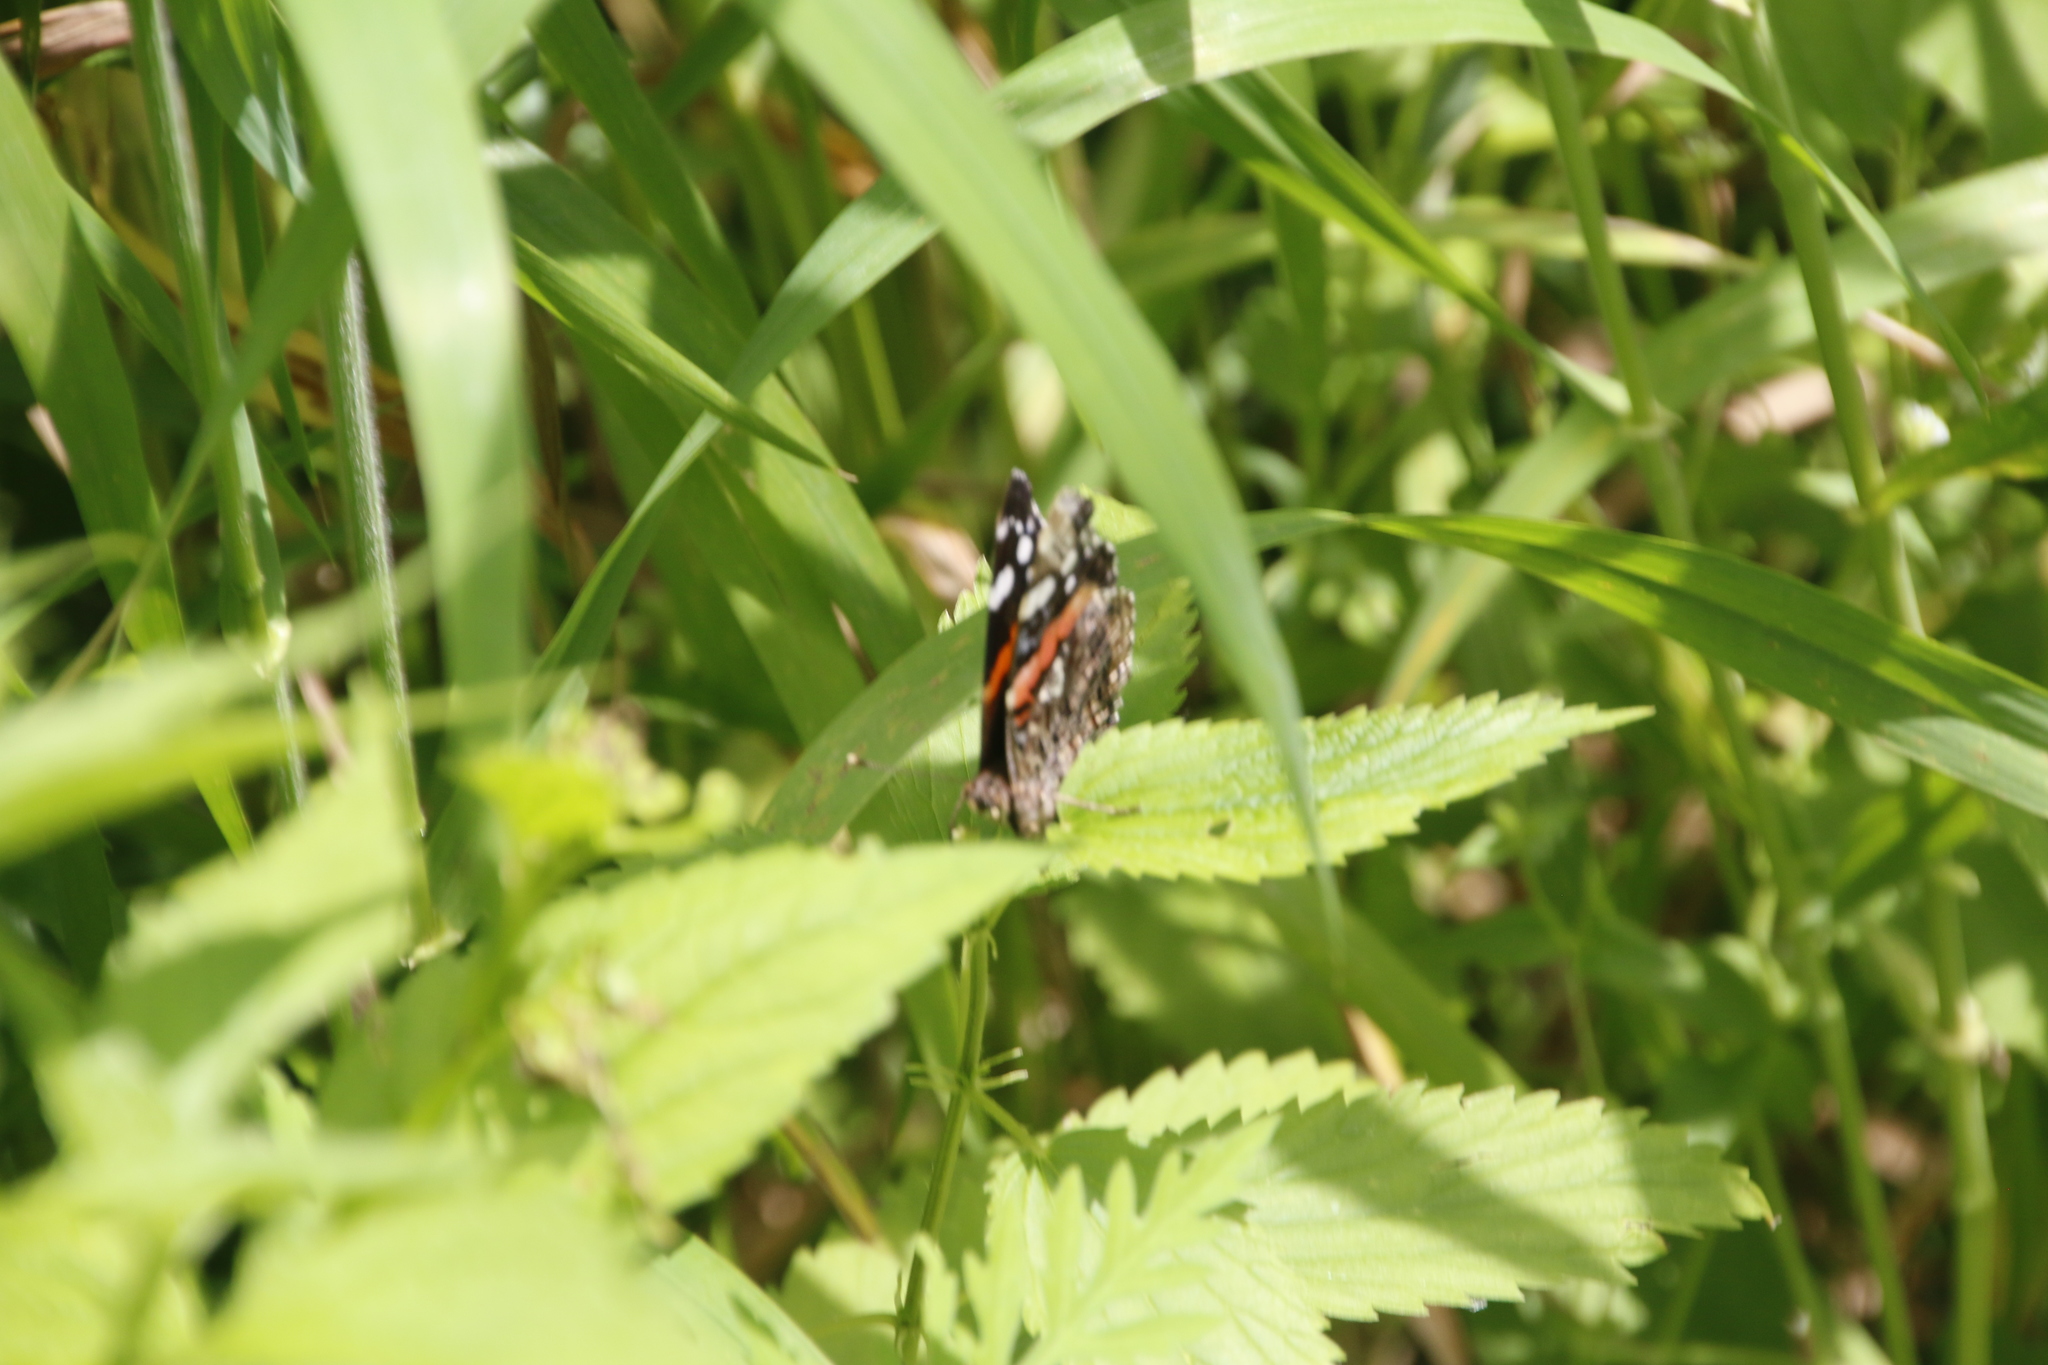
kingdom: Animalia
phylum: Arthropoda
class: Insecta
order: Lepidoptera
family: Nymphalidae
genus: Vanessa
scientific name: Vanessa atalanta
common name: Red admiral
